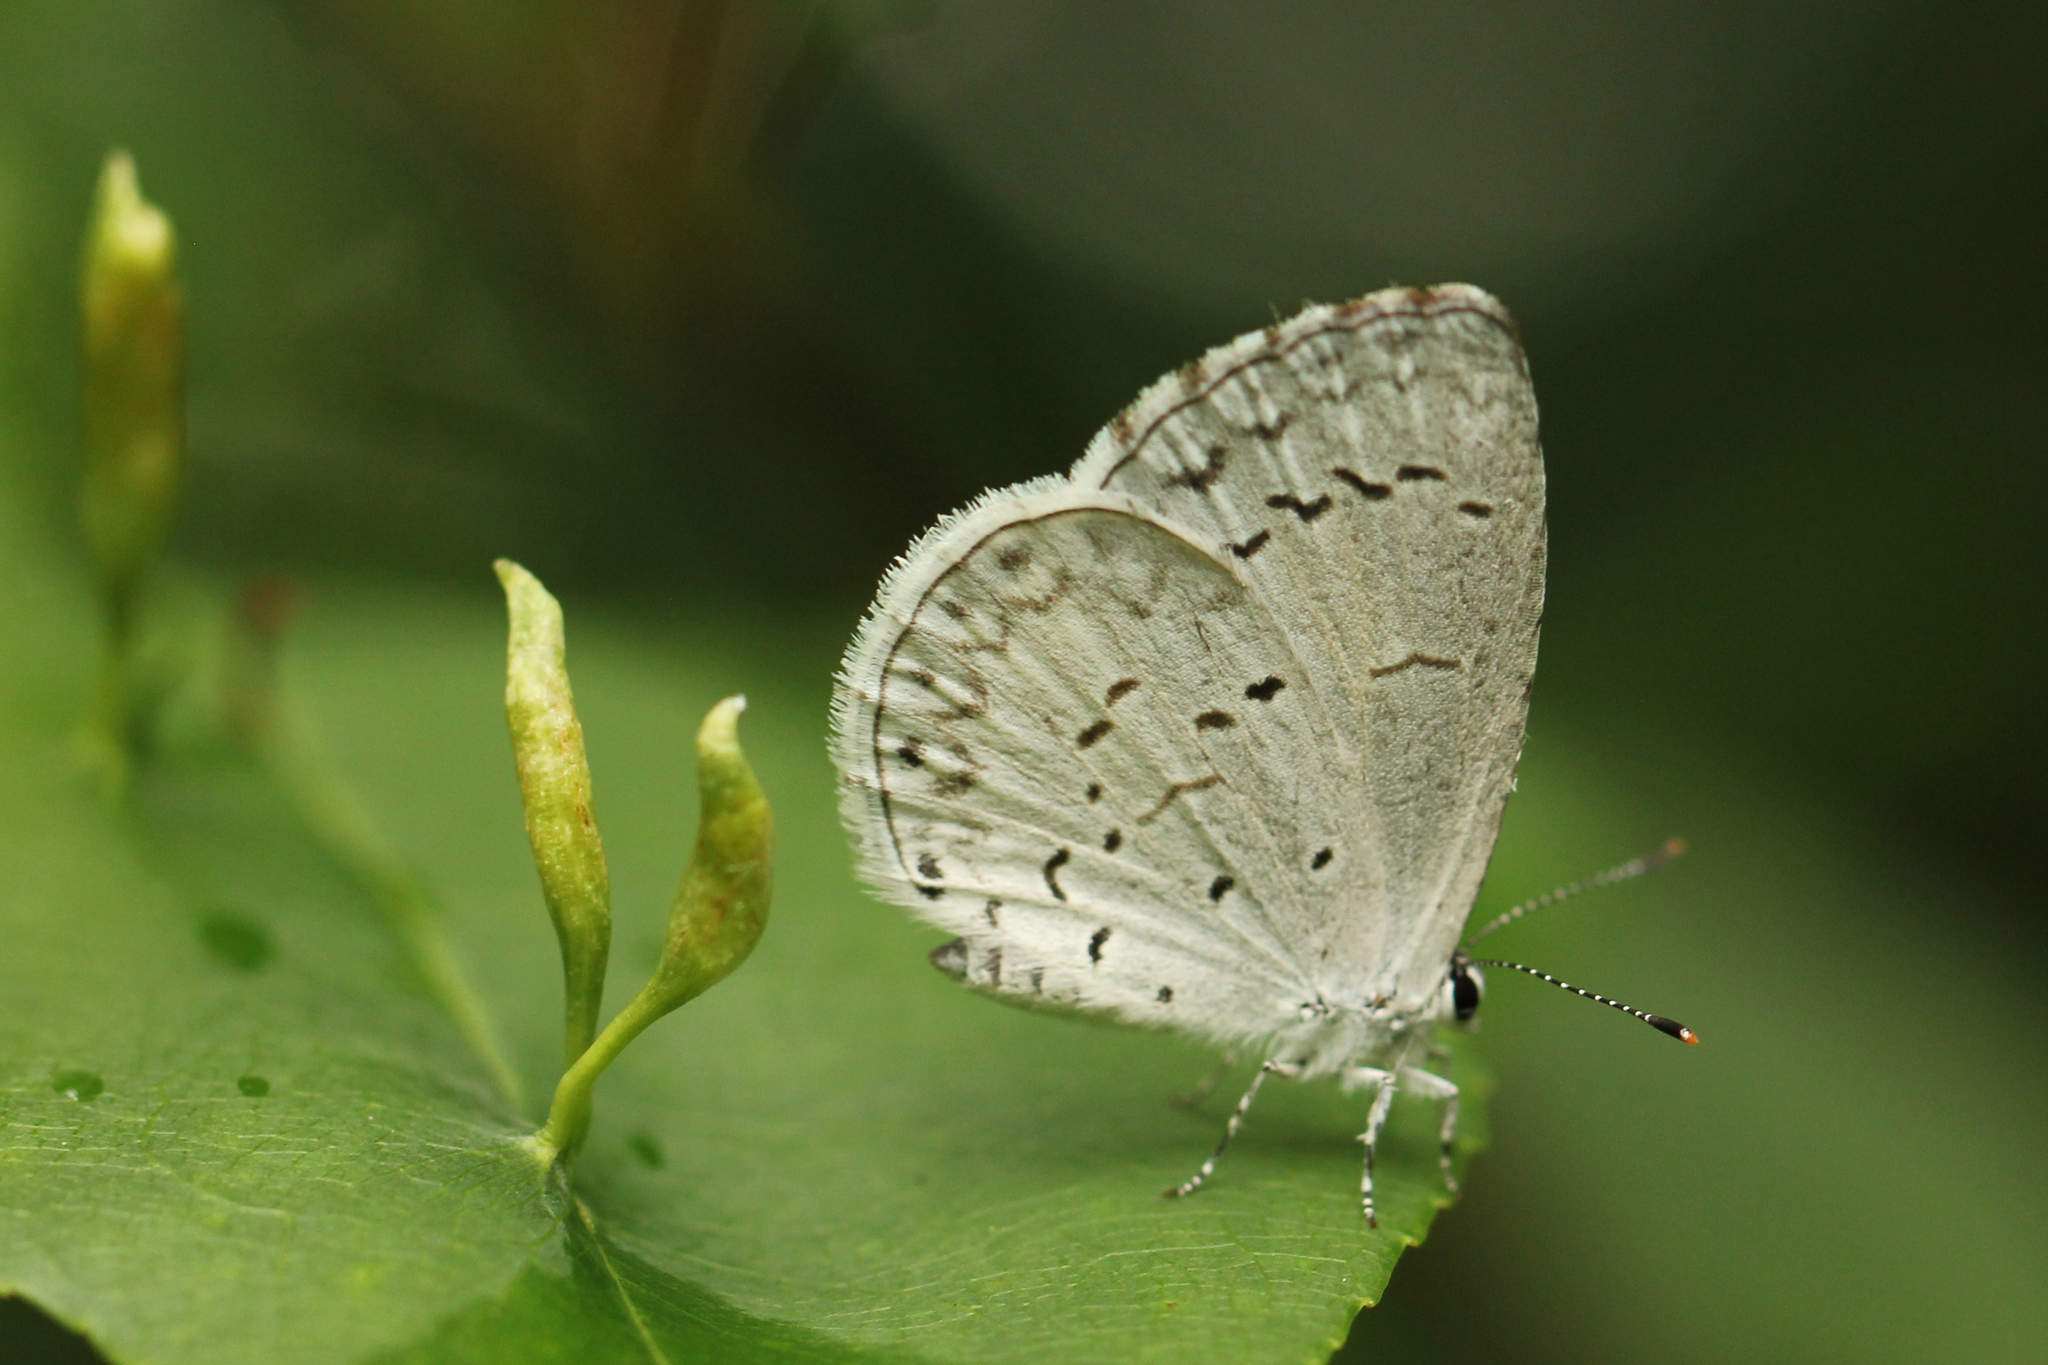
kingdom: Animalia
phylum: Arthropoda
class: Insecta
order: Lepidoptera
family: Lycaenidae
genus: Cyaniris
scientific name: Cyaniris neglecta
